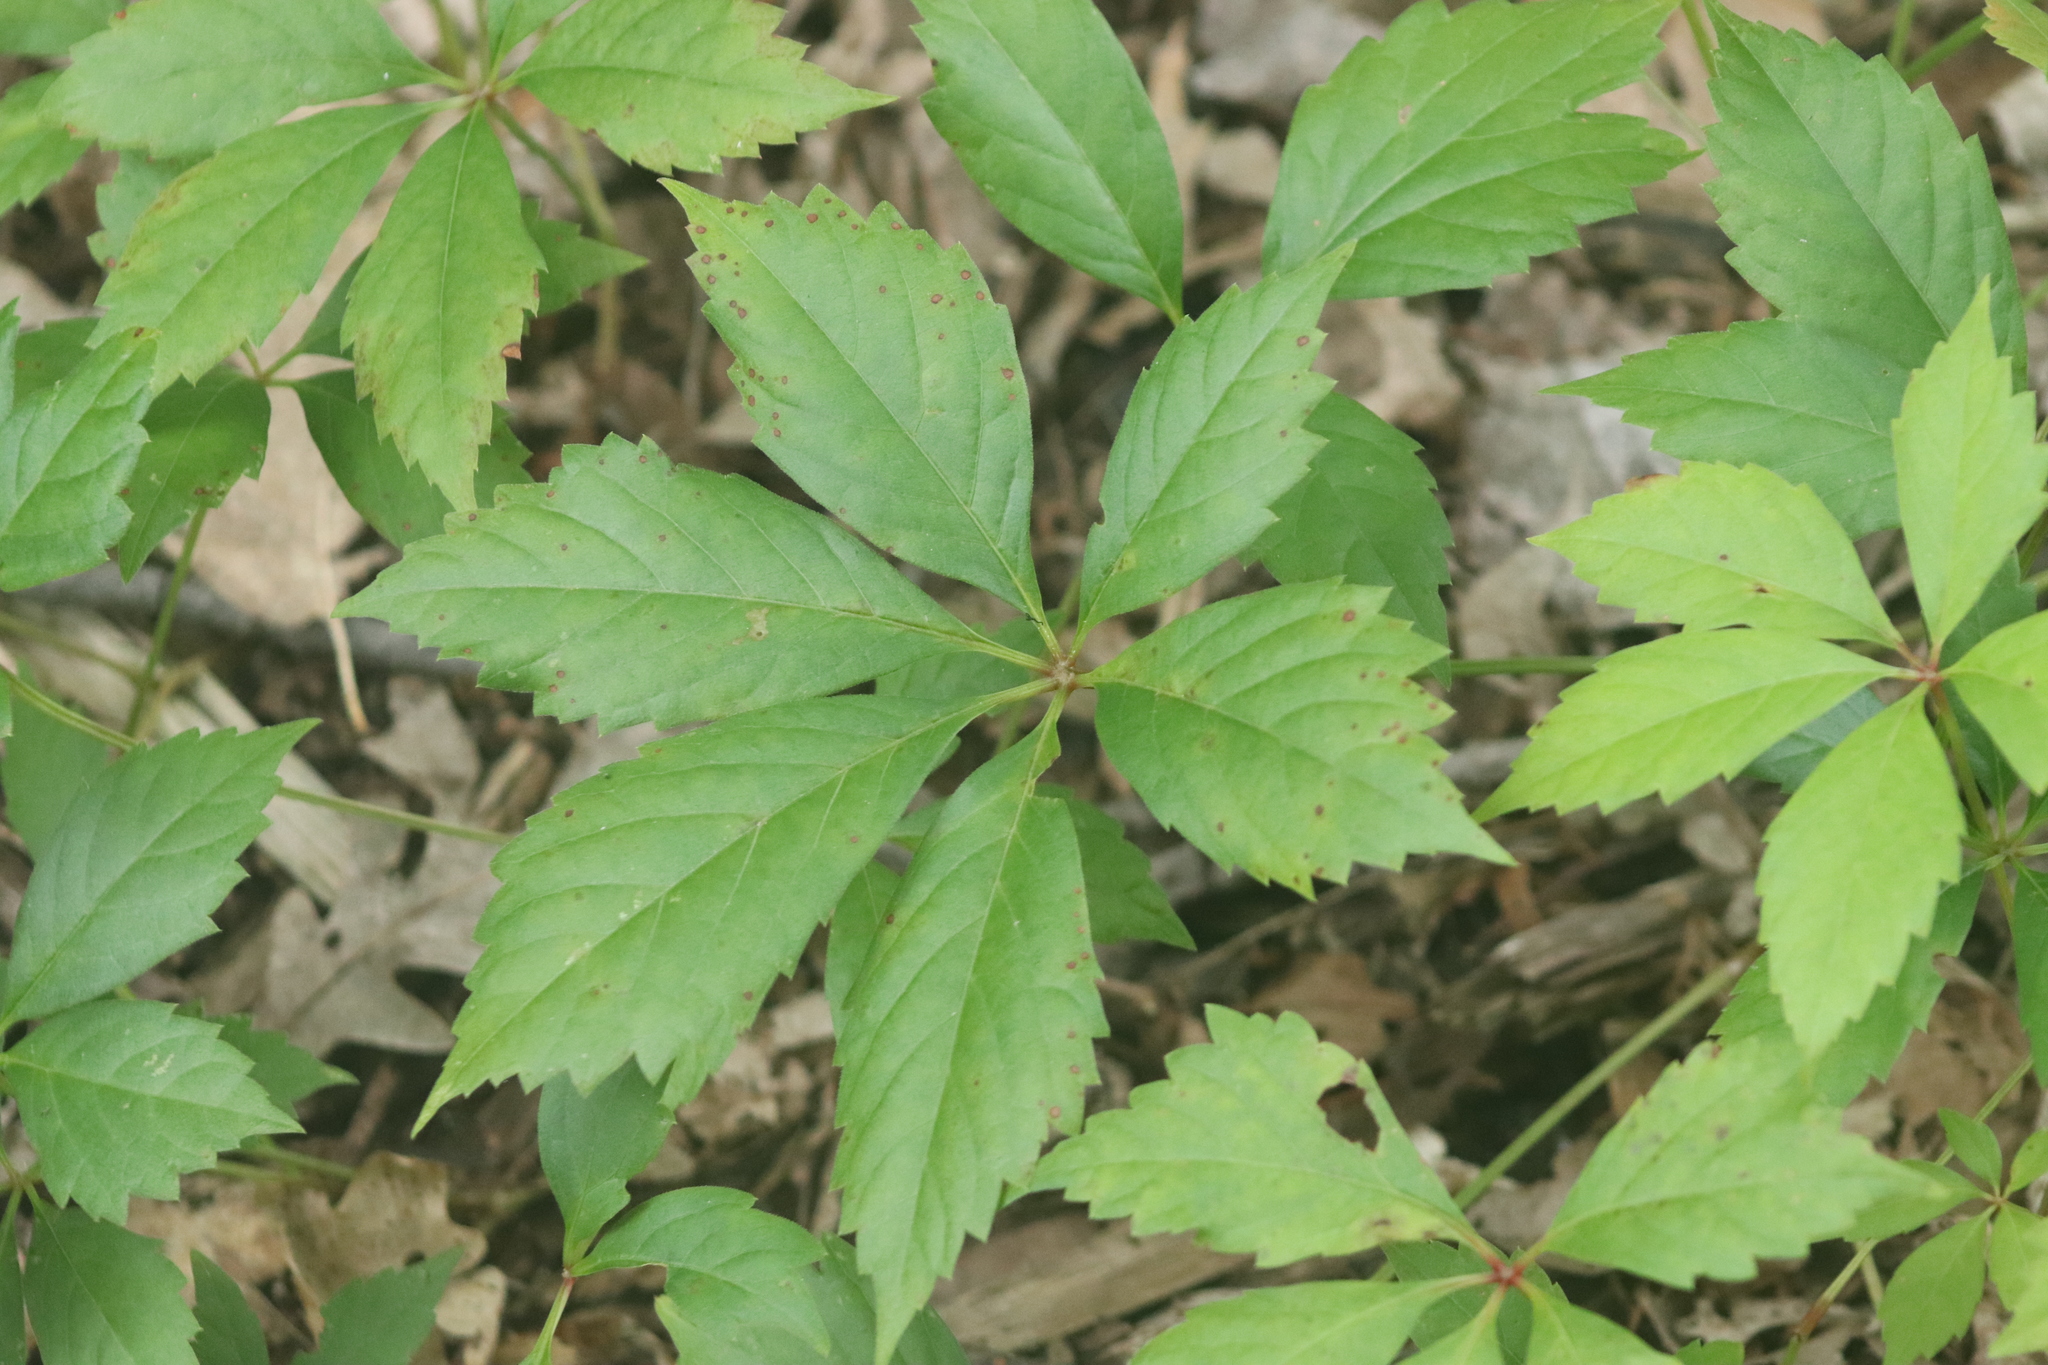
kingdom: Plantae
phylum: Tracheophyta
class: Magnoliopsida
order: Vitales
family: Vitaceae
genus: Parthenocissus
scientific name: Parthenocissus quinquefolia
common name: Virginia-creeper
